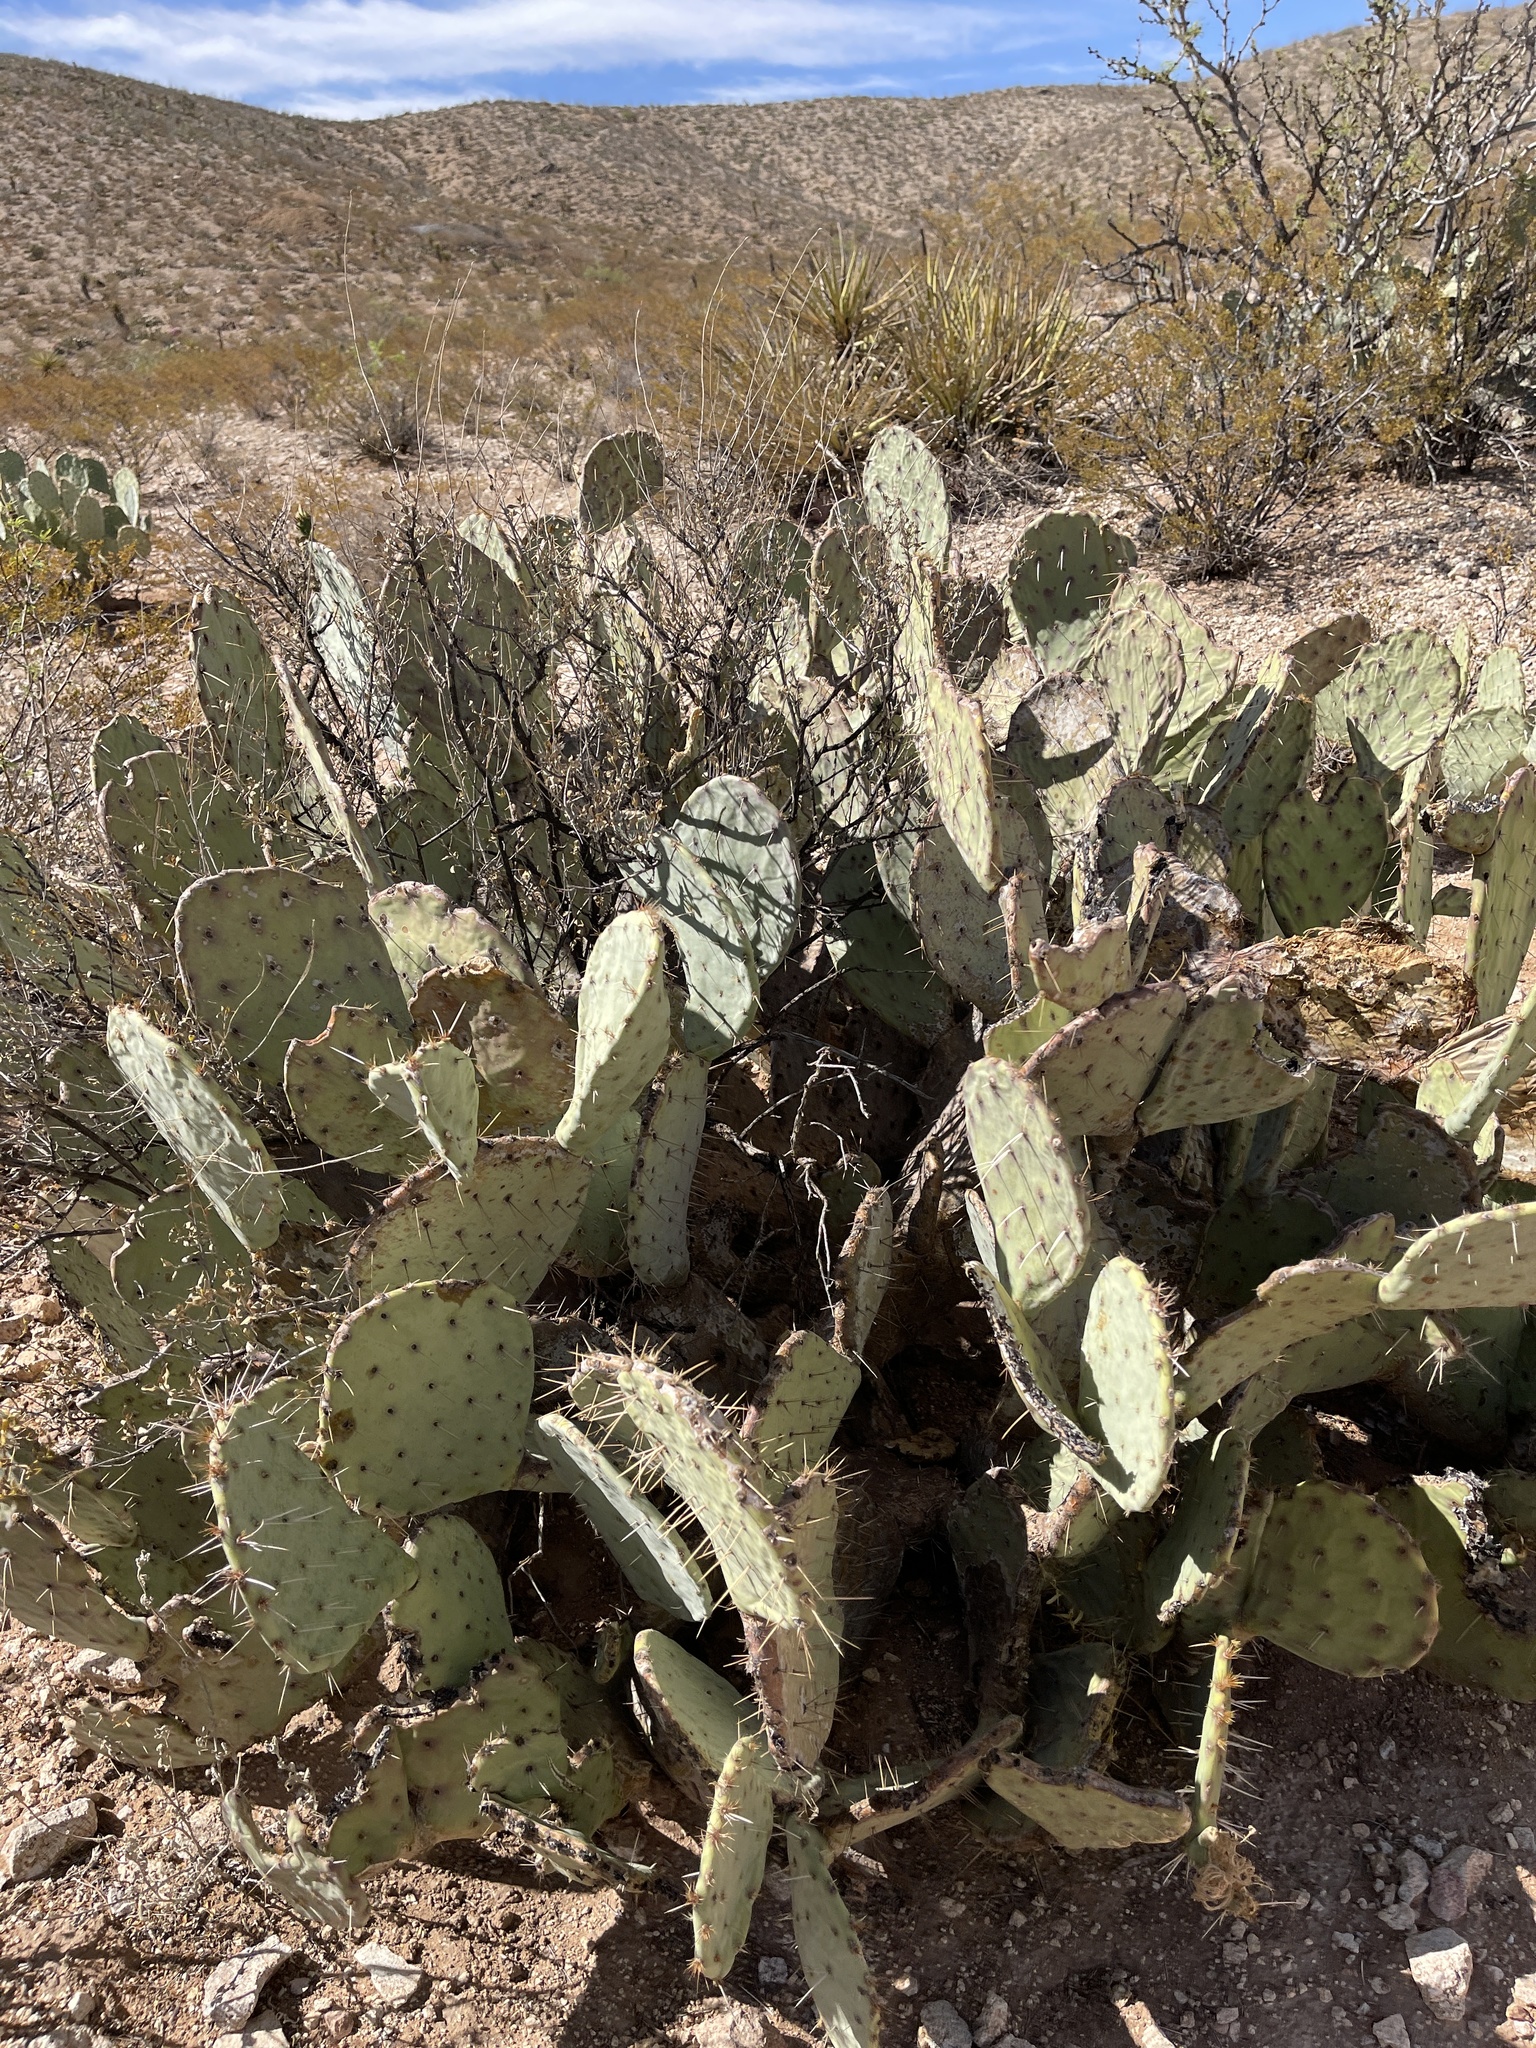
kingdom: Plantae
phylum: Tracheophyta
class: Magnoliopsida
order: Caryophyllales
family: Cactaceae
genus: Opuntia
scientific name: Opuntia engelmannii
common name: Cactus-apple
